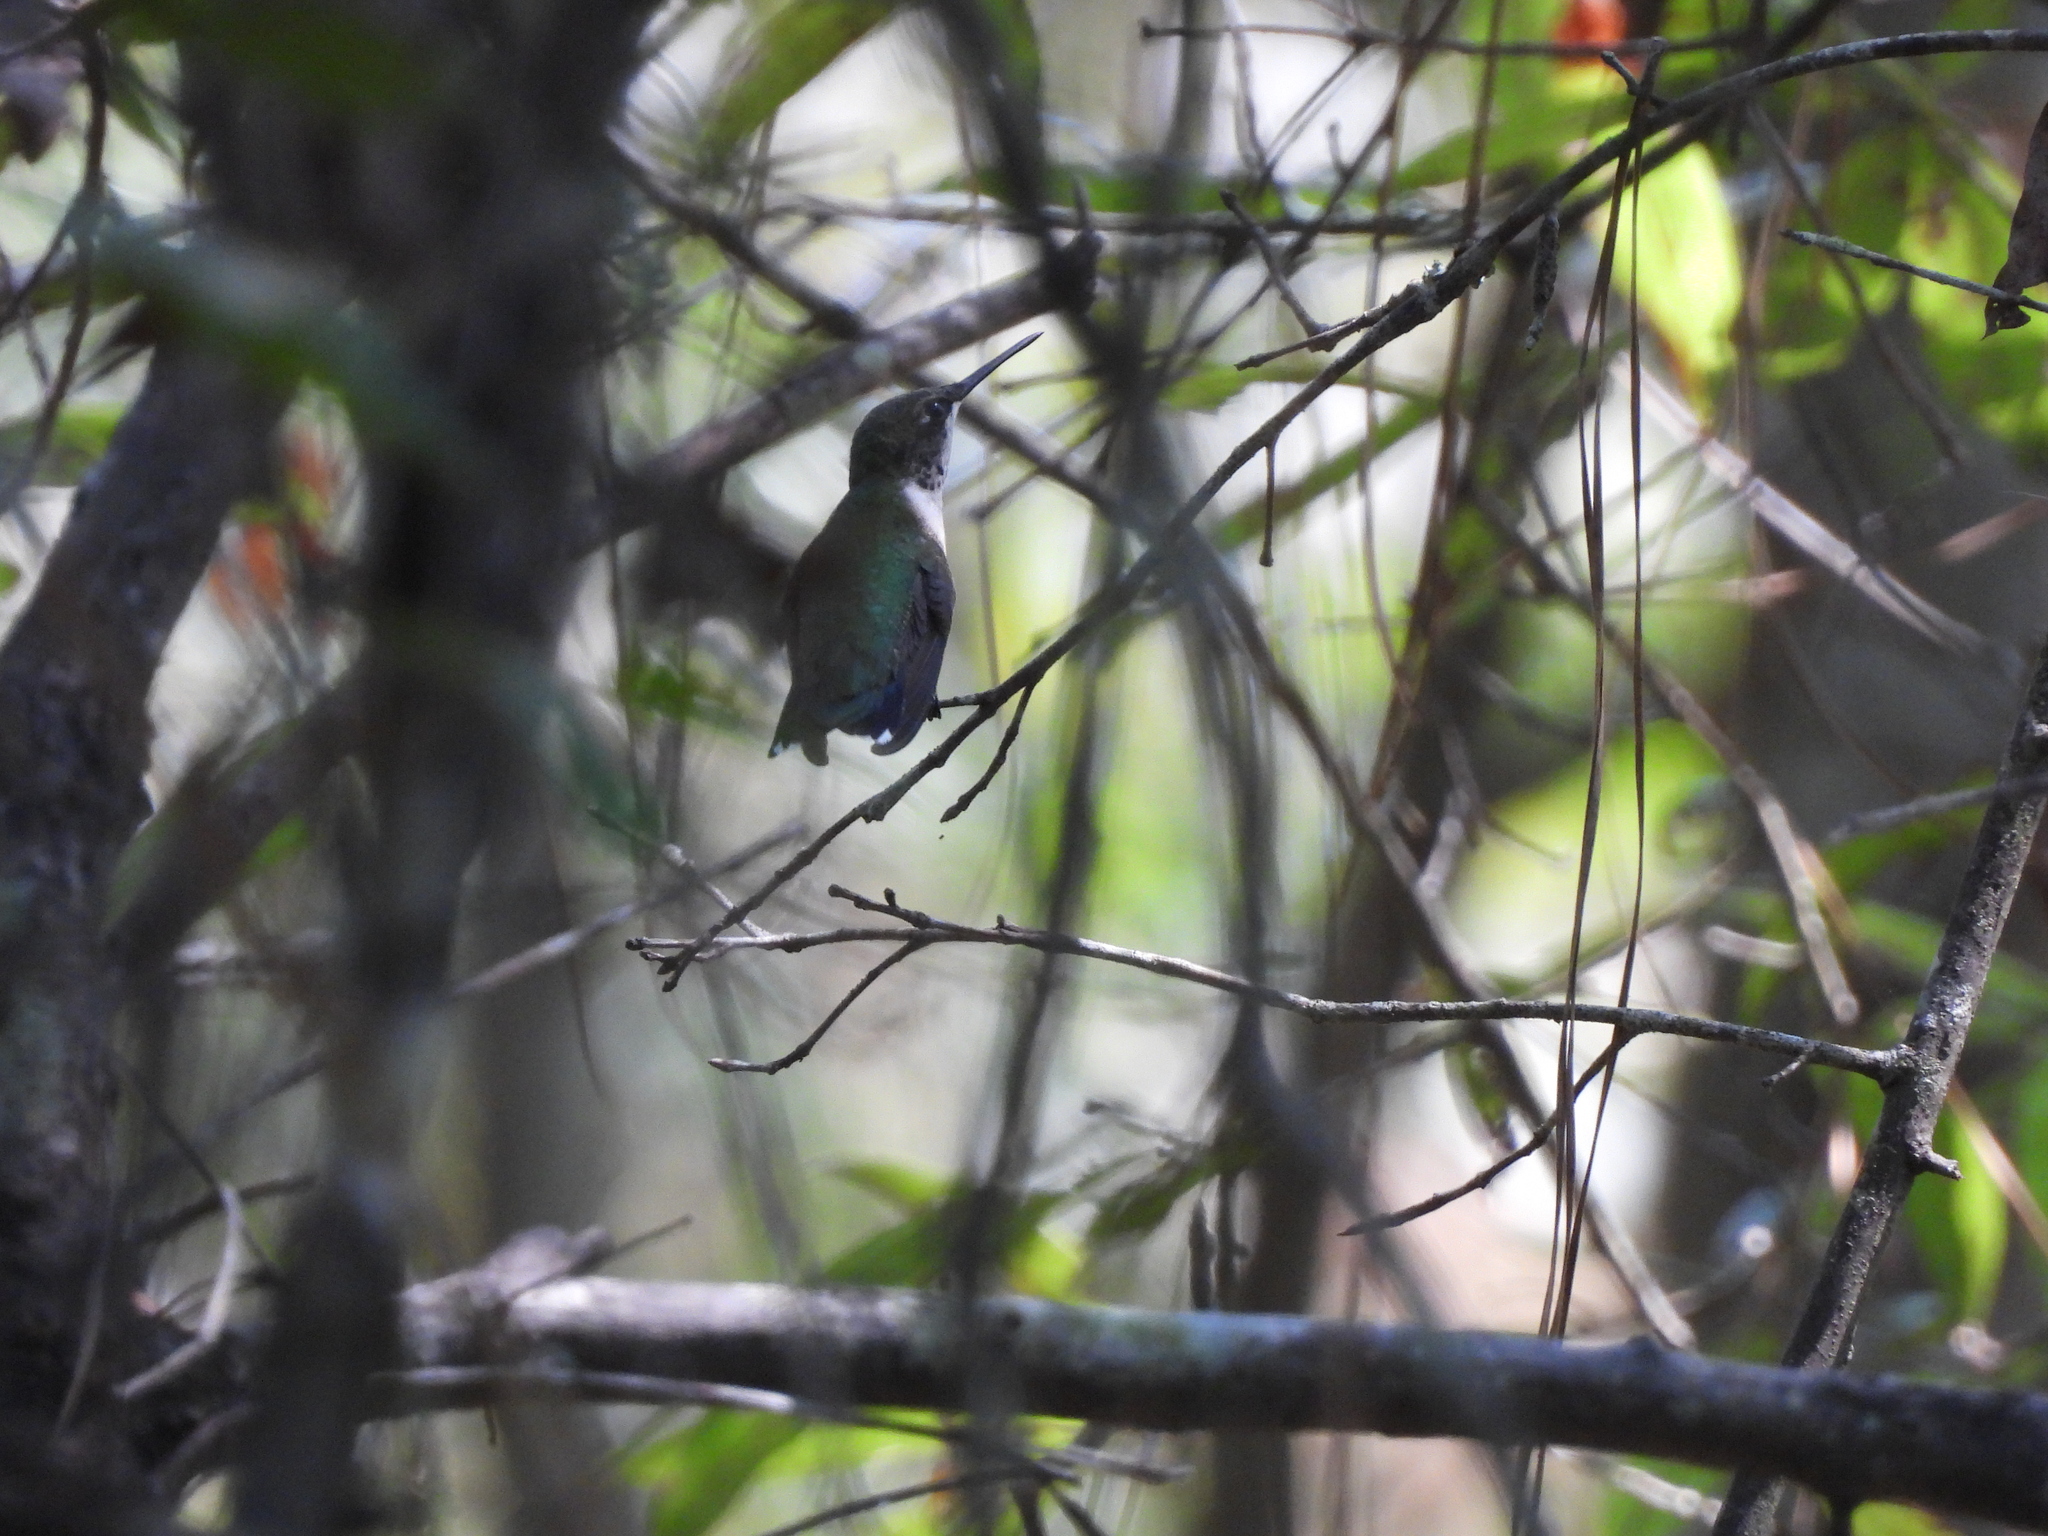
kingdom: Animalia
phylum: Chordata
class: Aves
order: Apodiformes
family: Trochilidae
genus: Archilochus
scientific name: Archilochus colubris
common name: Ruby-throated hummingbird
